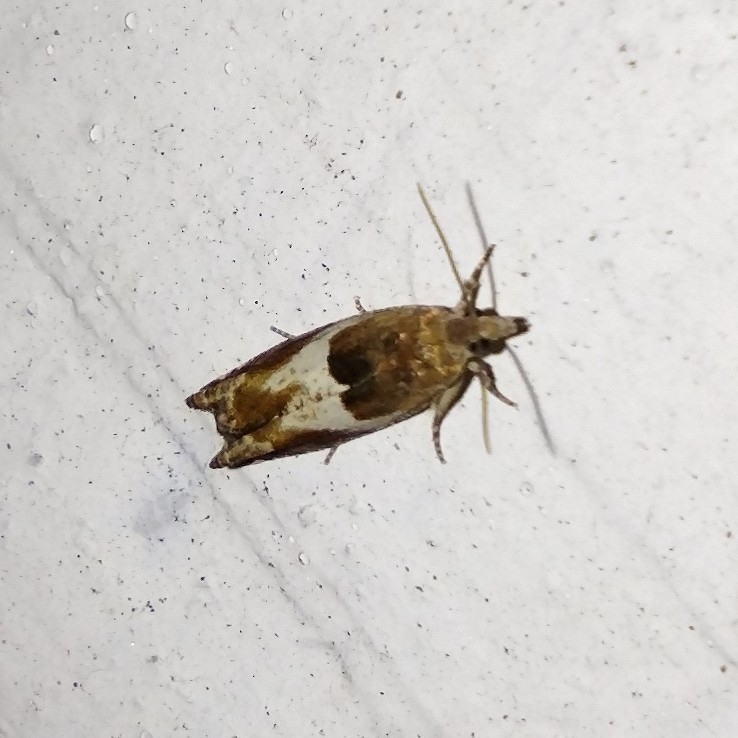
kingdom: Animalia
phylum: Arthropoda
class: Insecta
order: Lepidoptera
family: Tortricidae
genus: Epiblema
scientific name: Epiblema foenella
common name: White-foot bell
